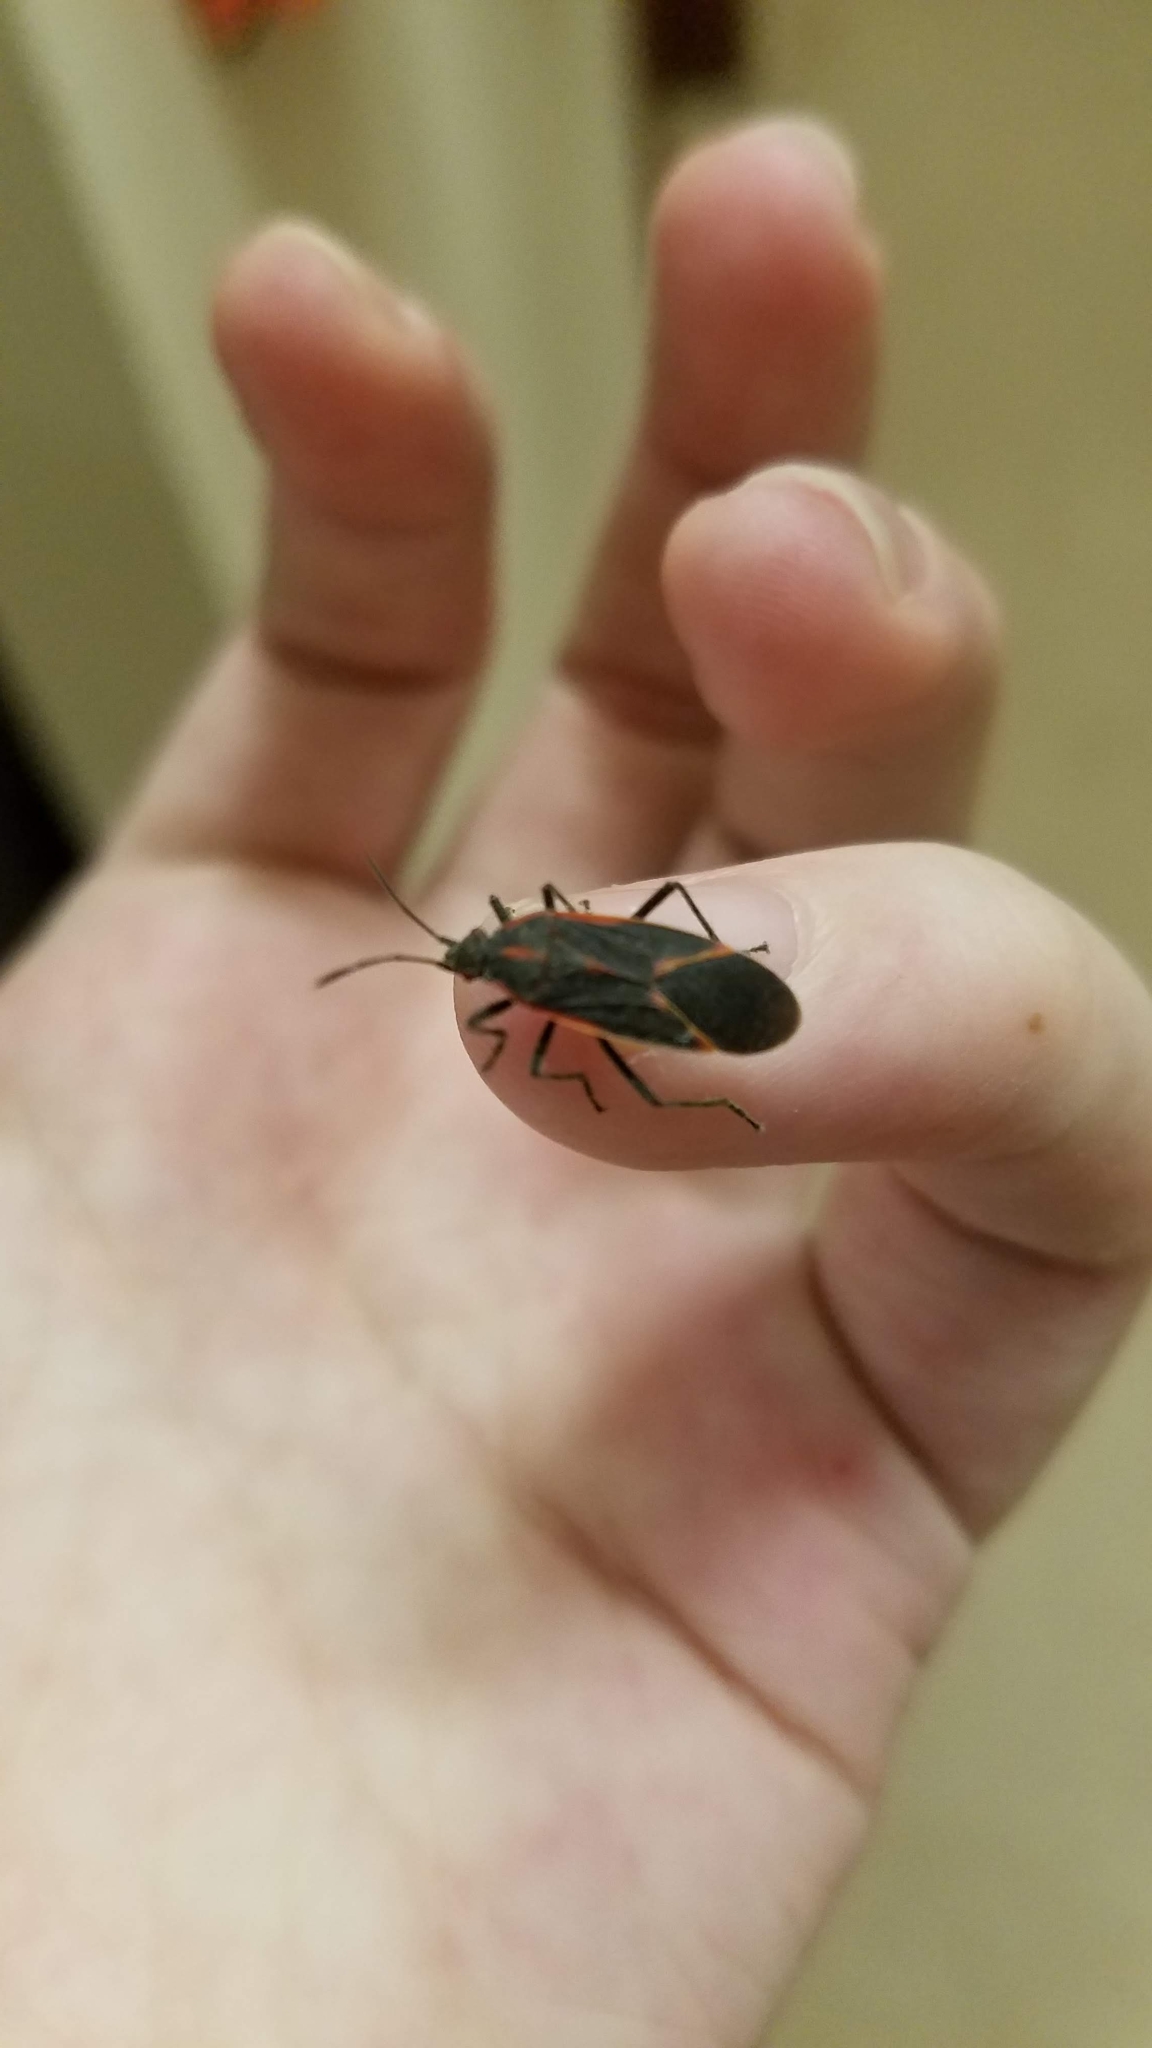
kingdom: Animalia
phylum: Arthropoda
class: Insecta
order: Hemiptera
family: Rhopalidae
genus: Boisea
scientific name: Boisea trivittata
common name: Boxelder bug
